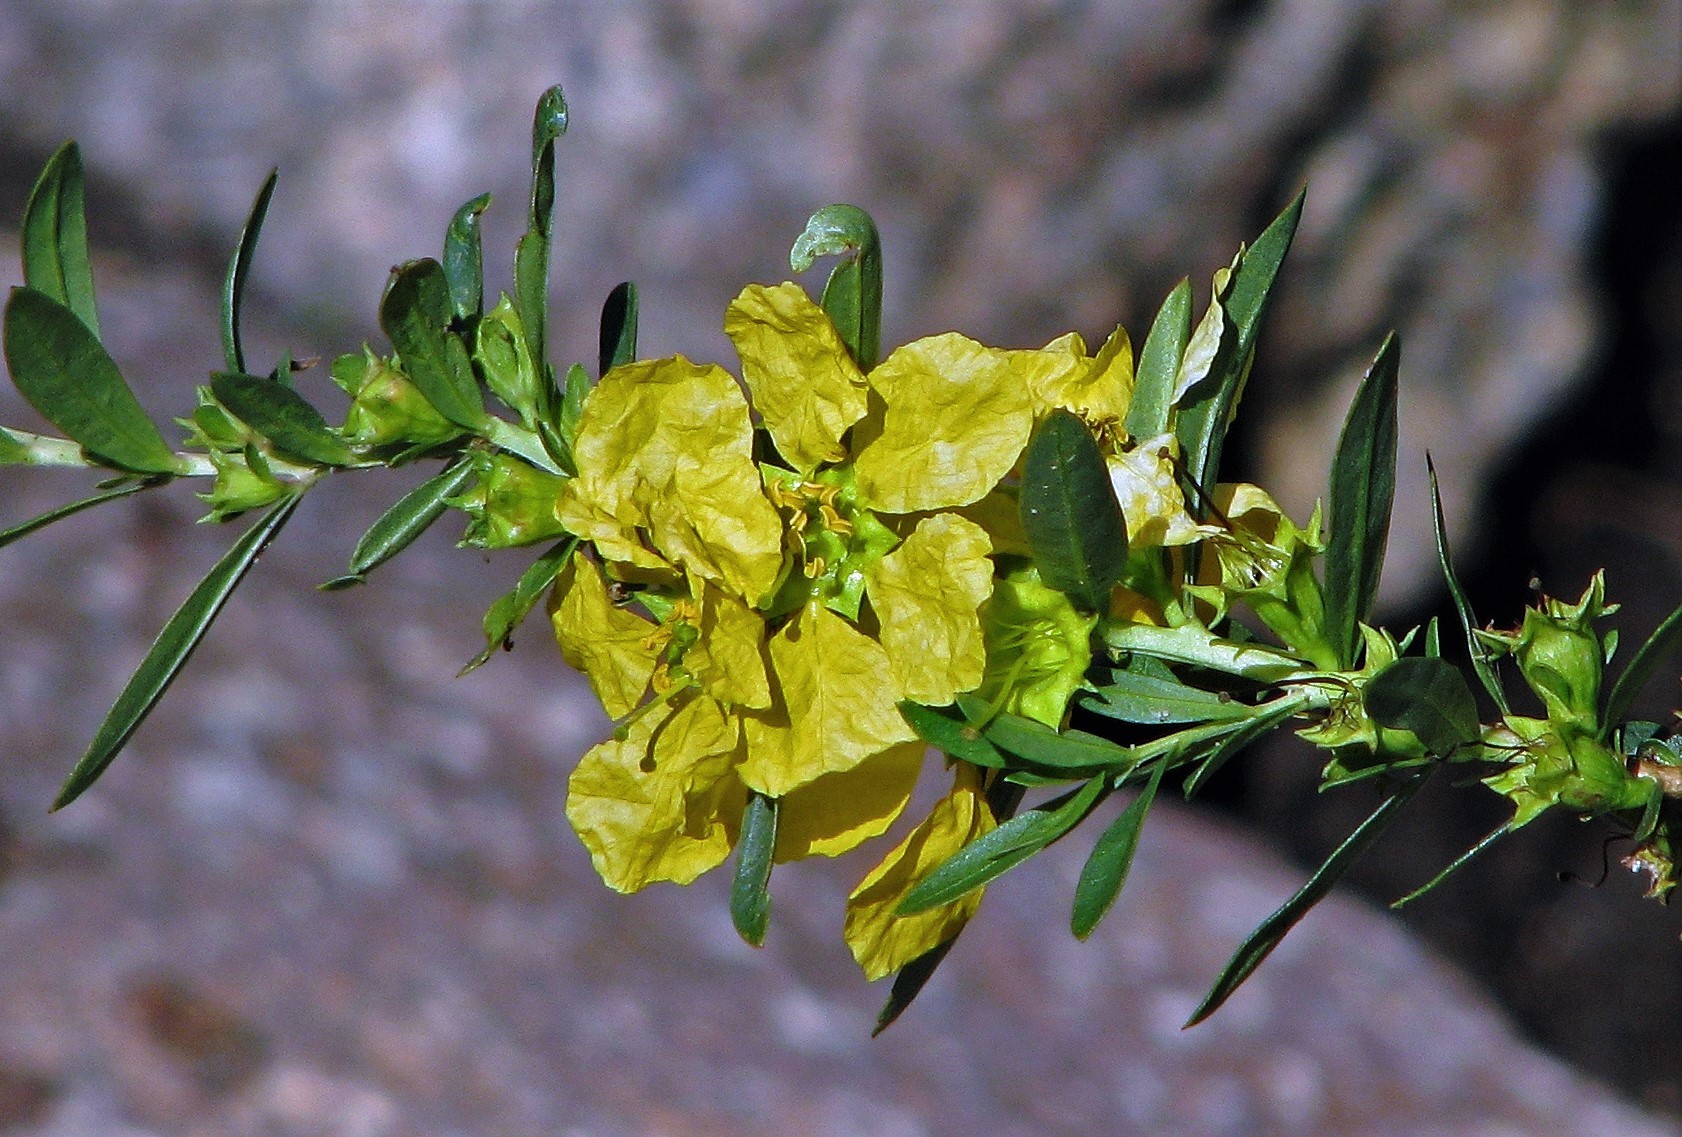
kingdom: Plantae
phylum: Tracheophyta
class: Magnoliopsida
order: Myrtales
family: Lythraceae
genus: Heimia
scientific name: Heimia salicifolia
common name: Willow-leaf heimia
